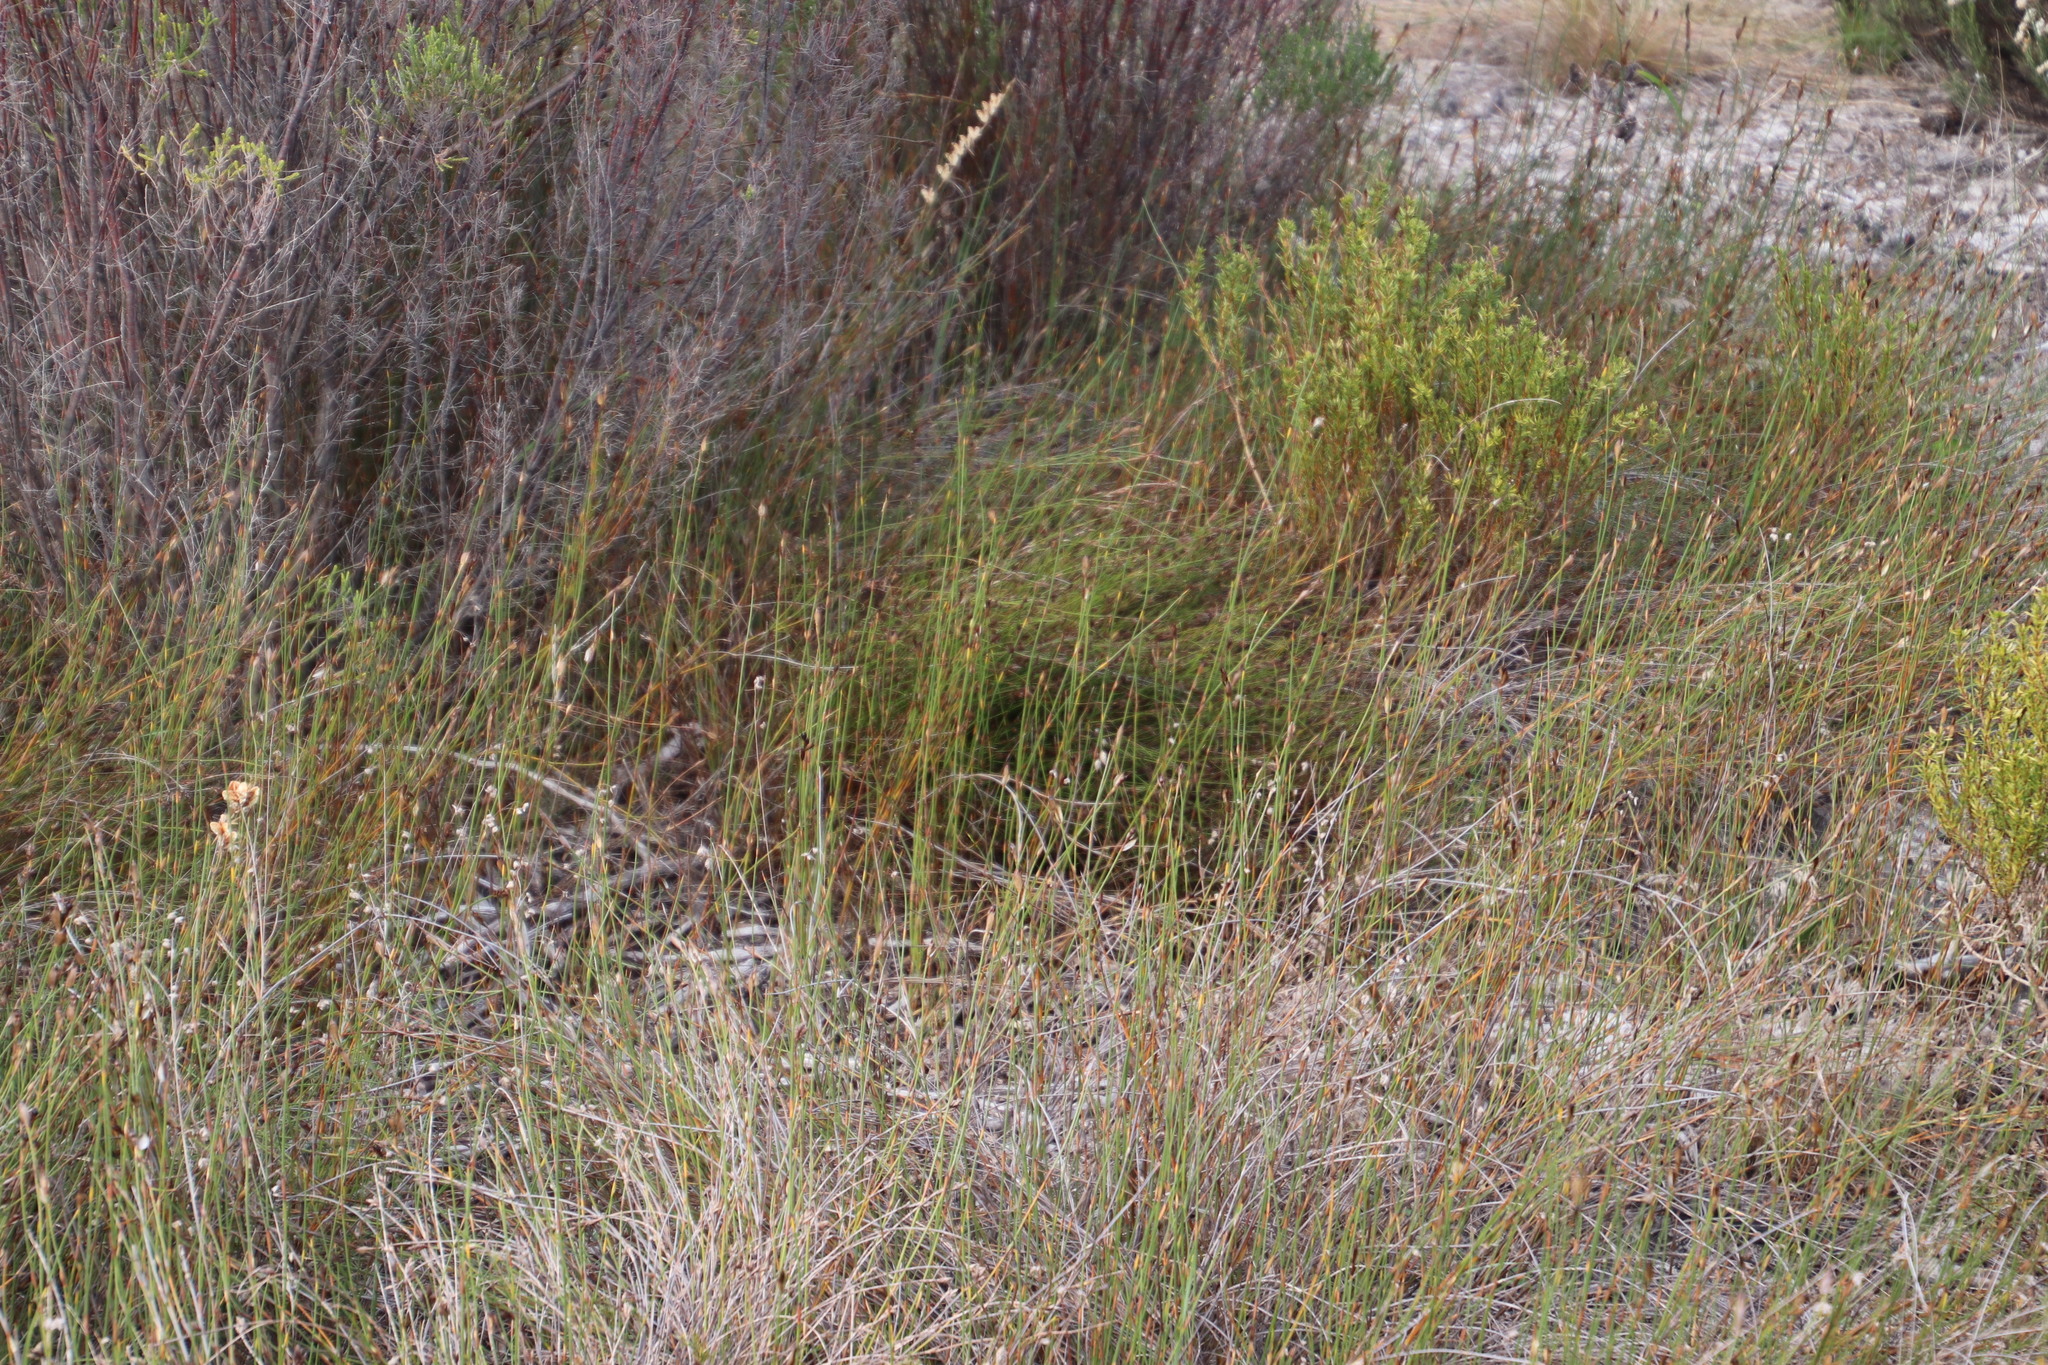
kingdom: Plantae
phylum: Tracheophyta
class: Liliopsida
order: Poales
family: Restionaceae
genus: Willdenowia
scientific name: Willdenowia sulcata
